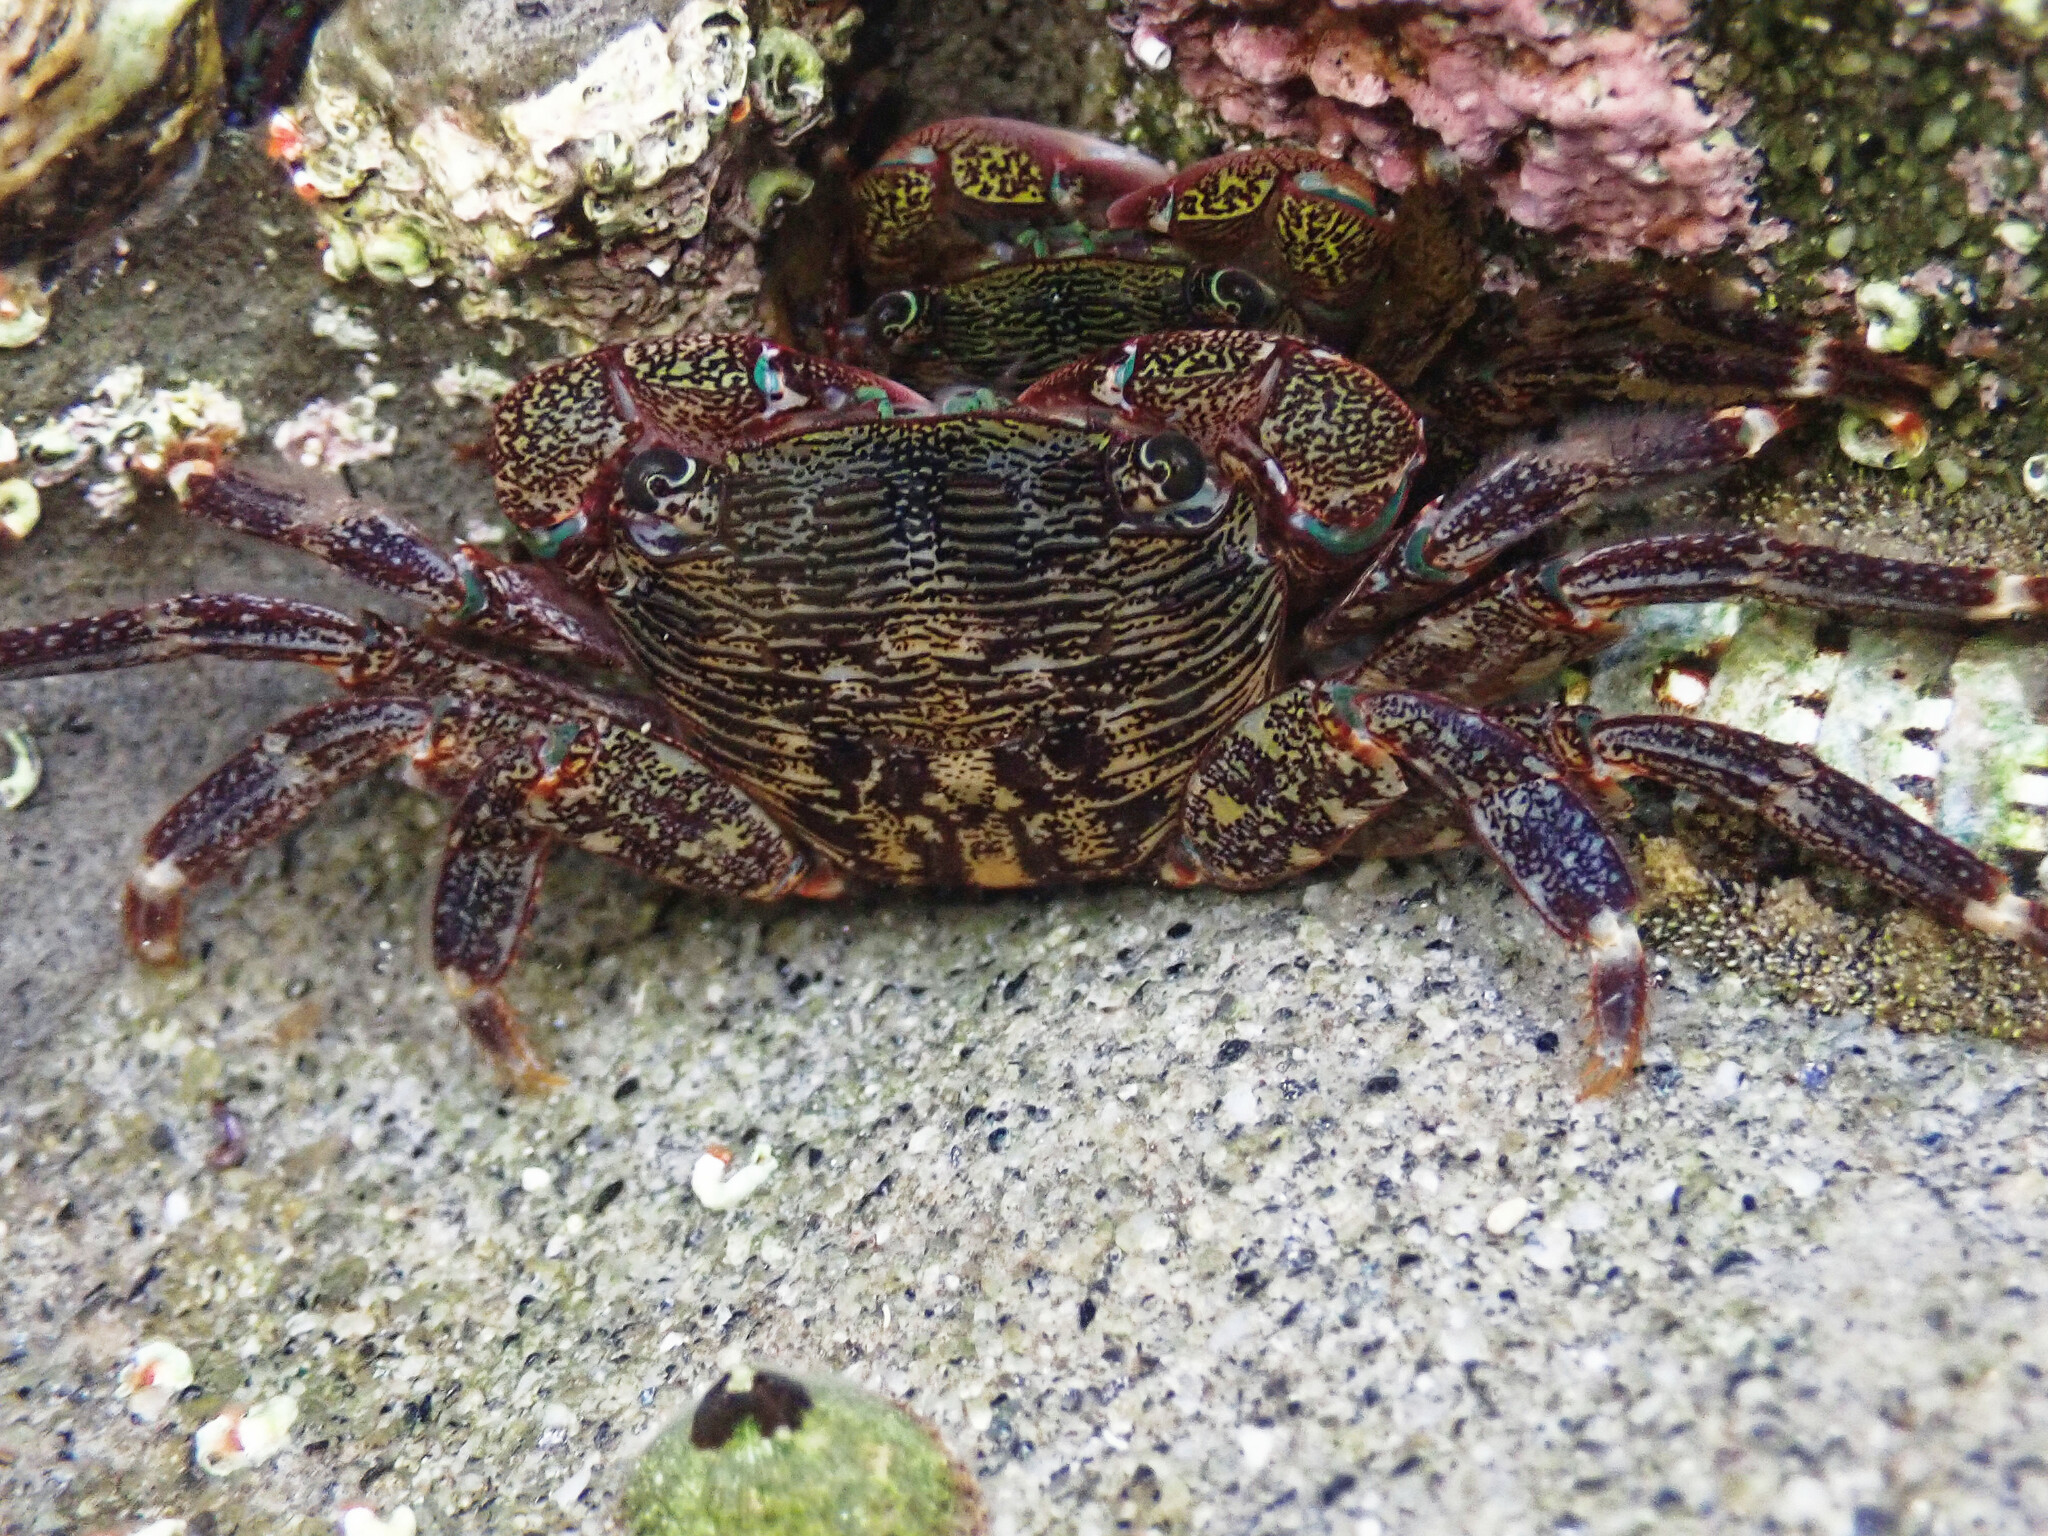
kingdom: Animalia
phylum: Arthropoda
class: Malacostraca
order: Decapoda
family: Grapsidae
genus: Pachygrapsus
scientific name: Pachygrapsus crassipes
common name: Striped shore crab
